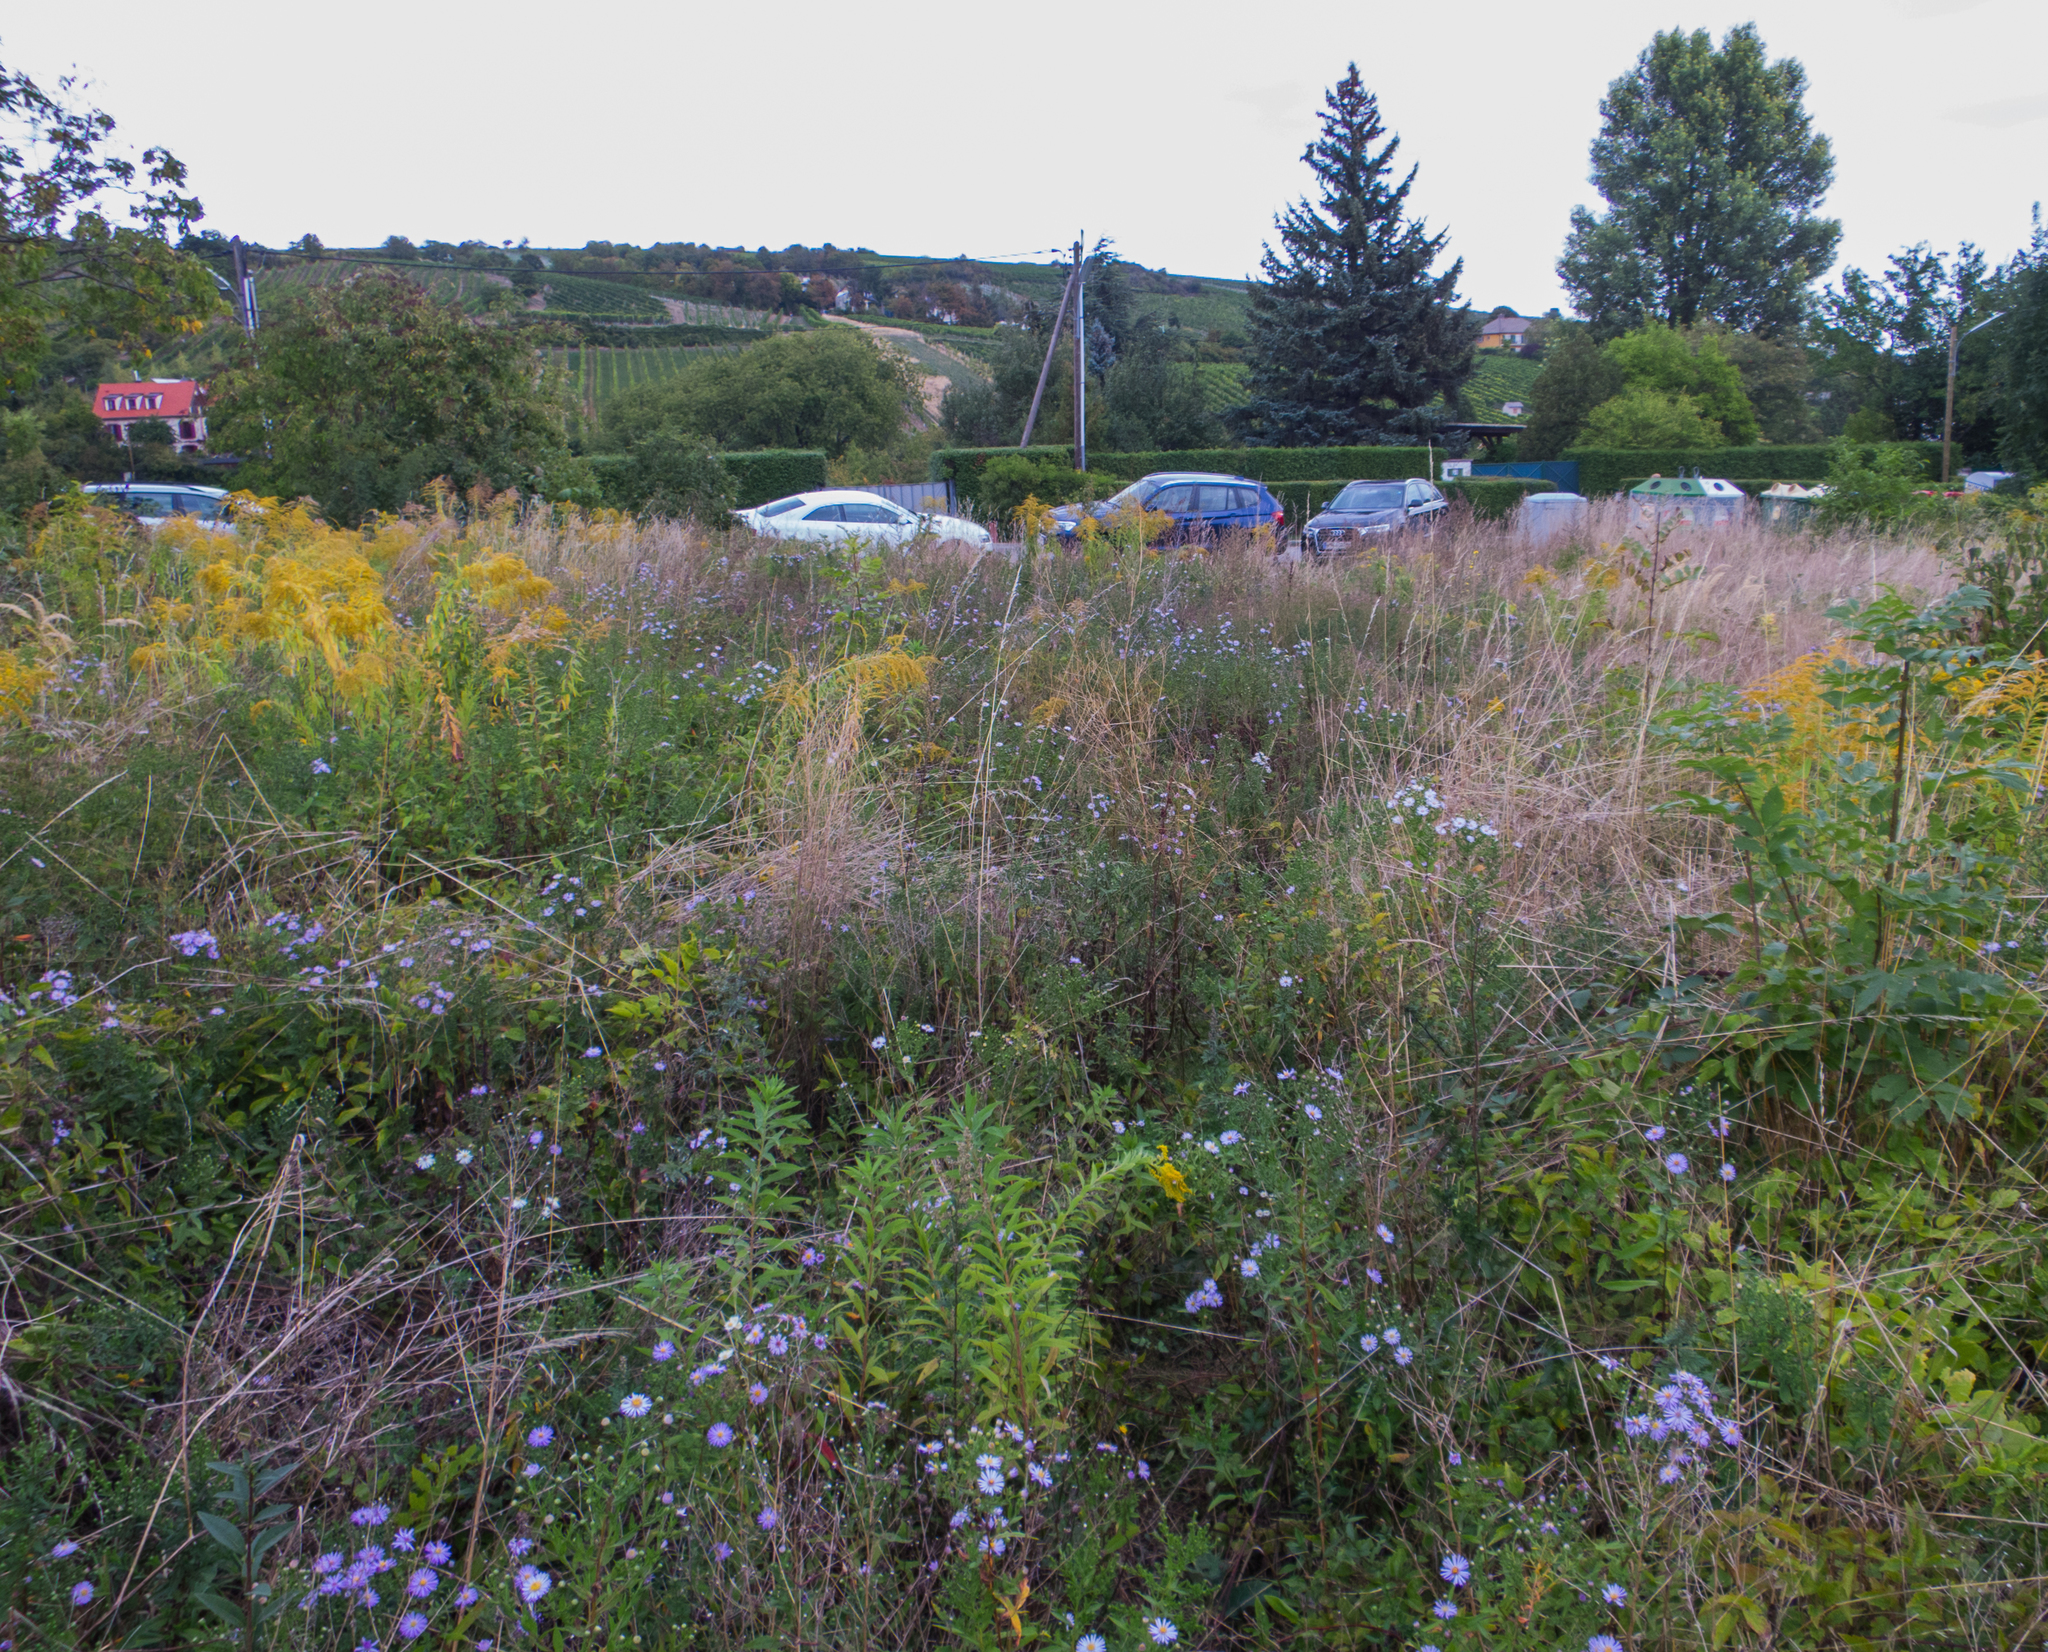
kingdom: Plantae
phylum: Tracheophyta
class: Magnoliopsida
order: Asterales
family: Asteraceae
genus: Aster
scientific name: Aster amellus
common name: European michaelmas daisy
